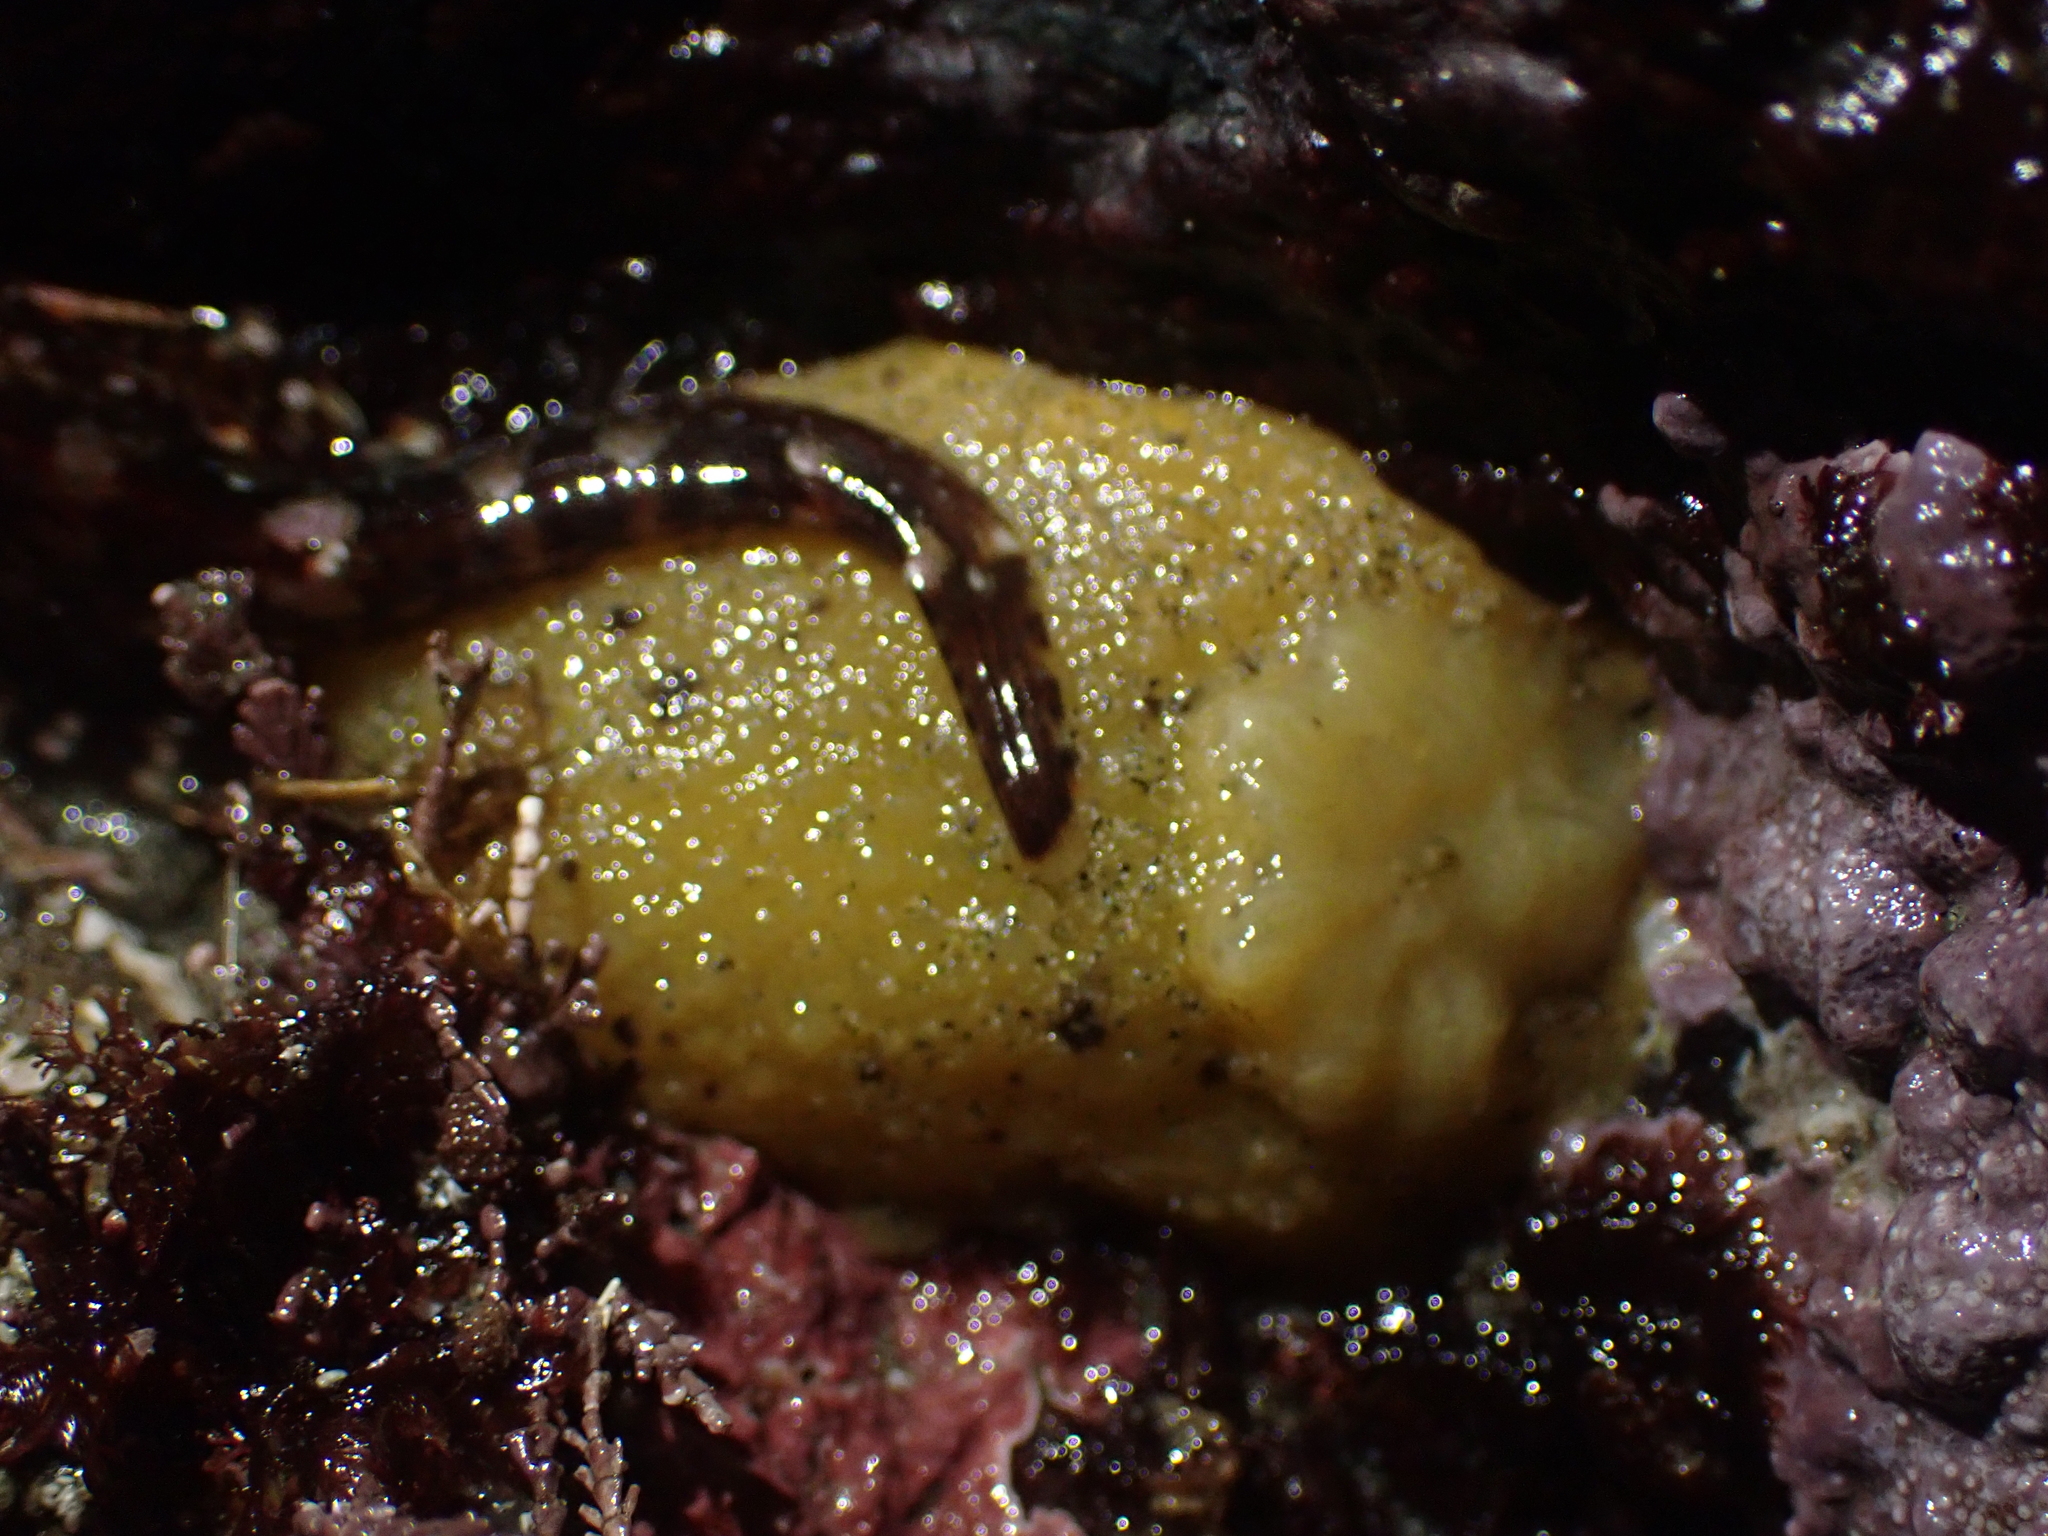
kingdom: Animalia
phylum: Mollusca
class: Gastropoda
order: Nudibranchia
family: Dorididae
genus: Doris
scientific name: Doris montereyensis
